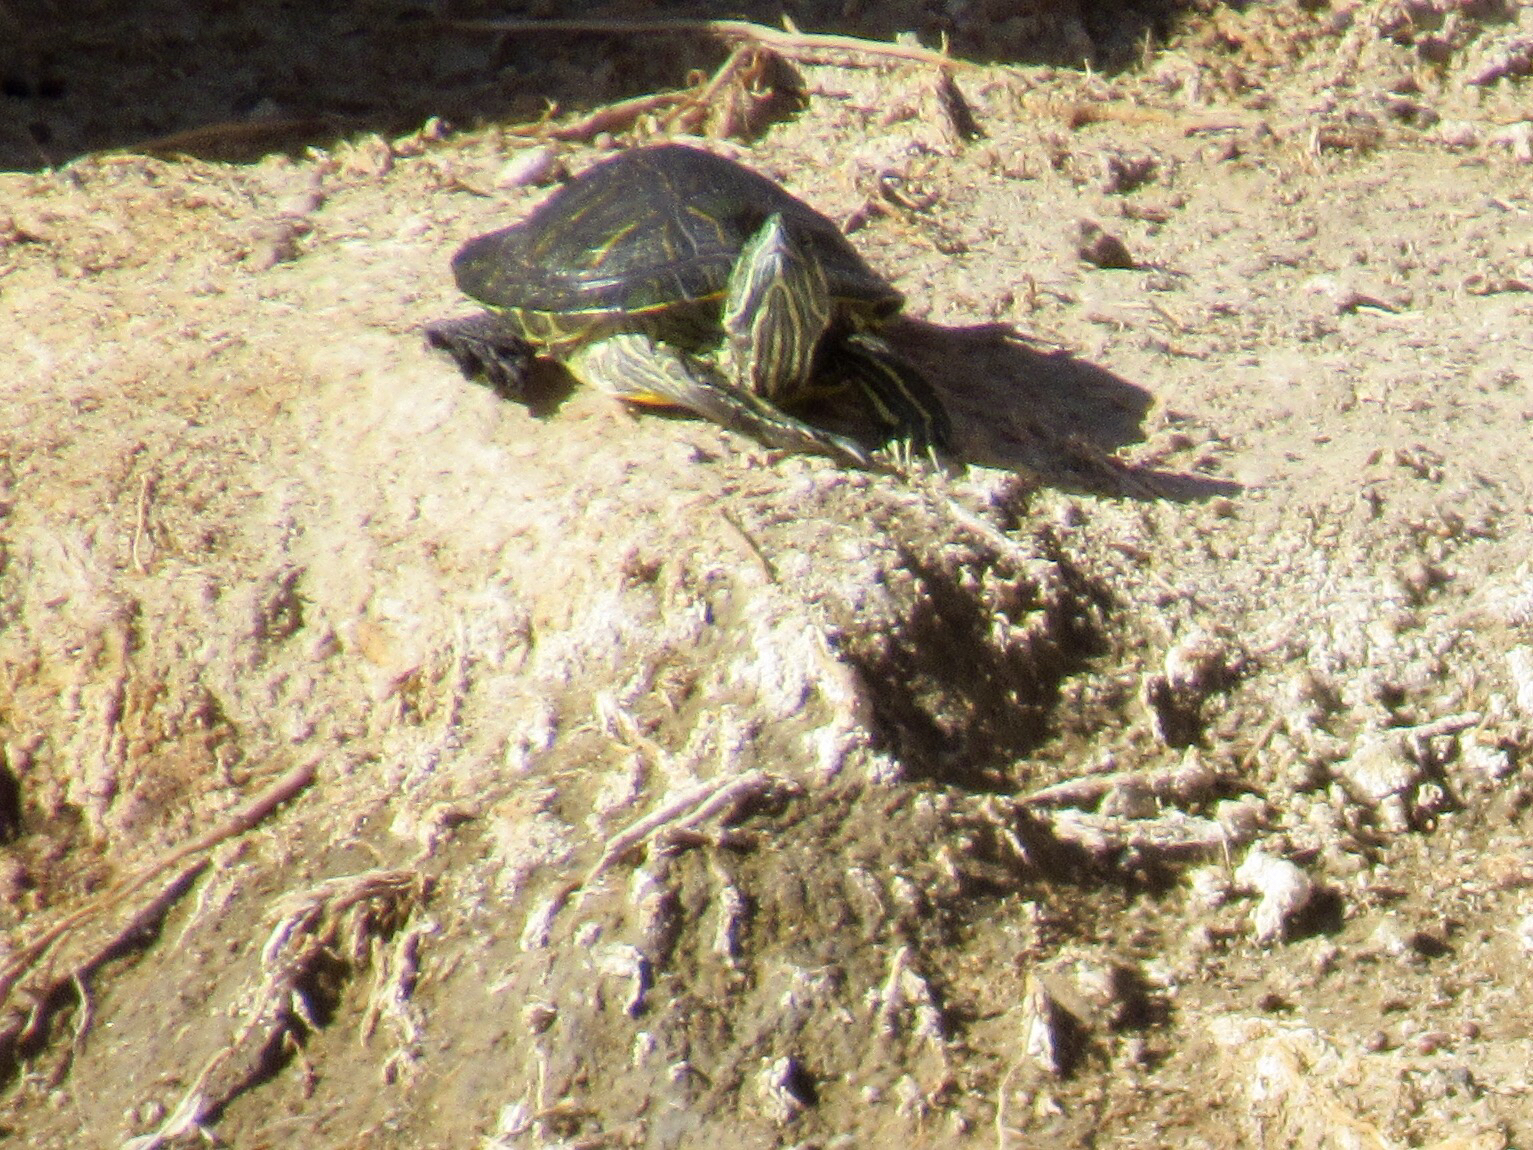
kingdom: Animalia
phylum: Chordata
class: Testudines
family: Emydidae
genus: Trachemys
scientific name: Trachemys scripta
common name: Slider
